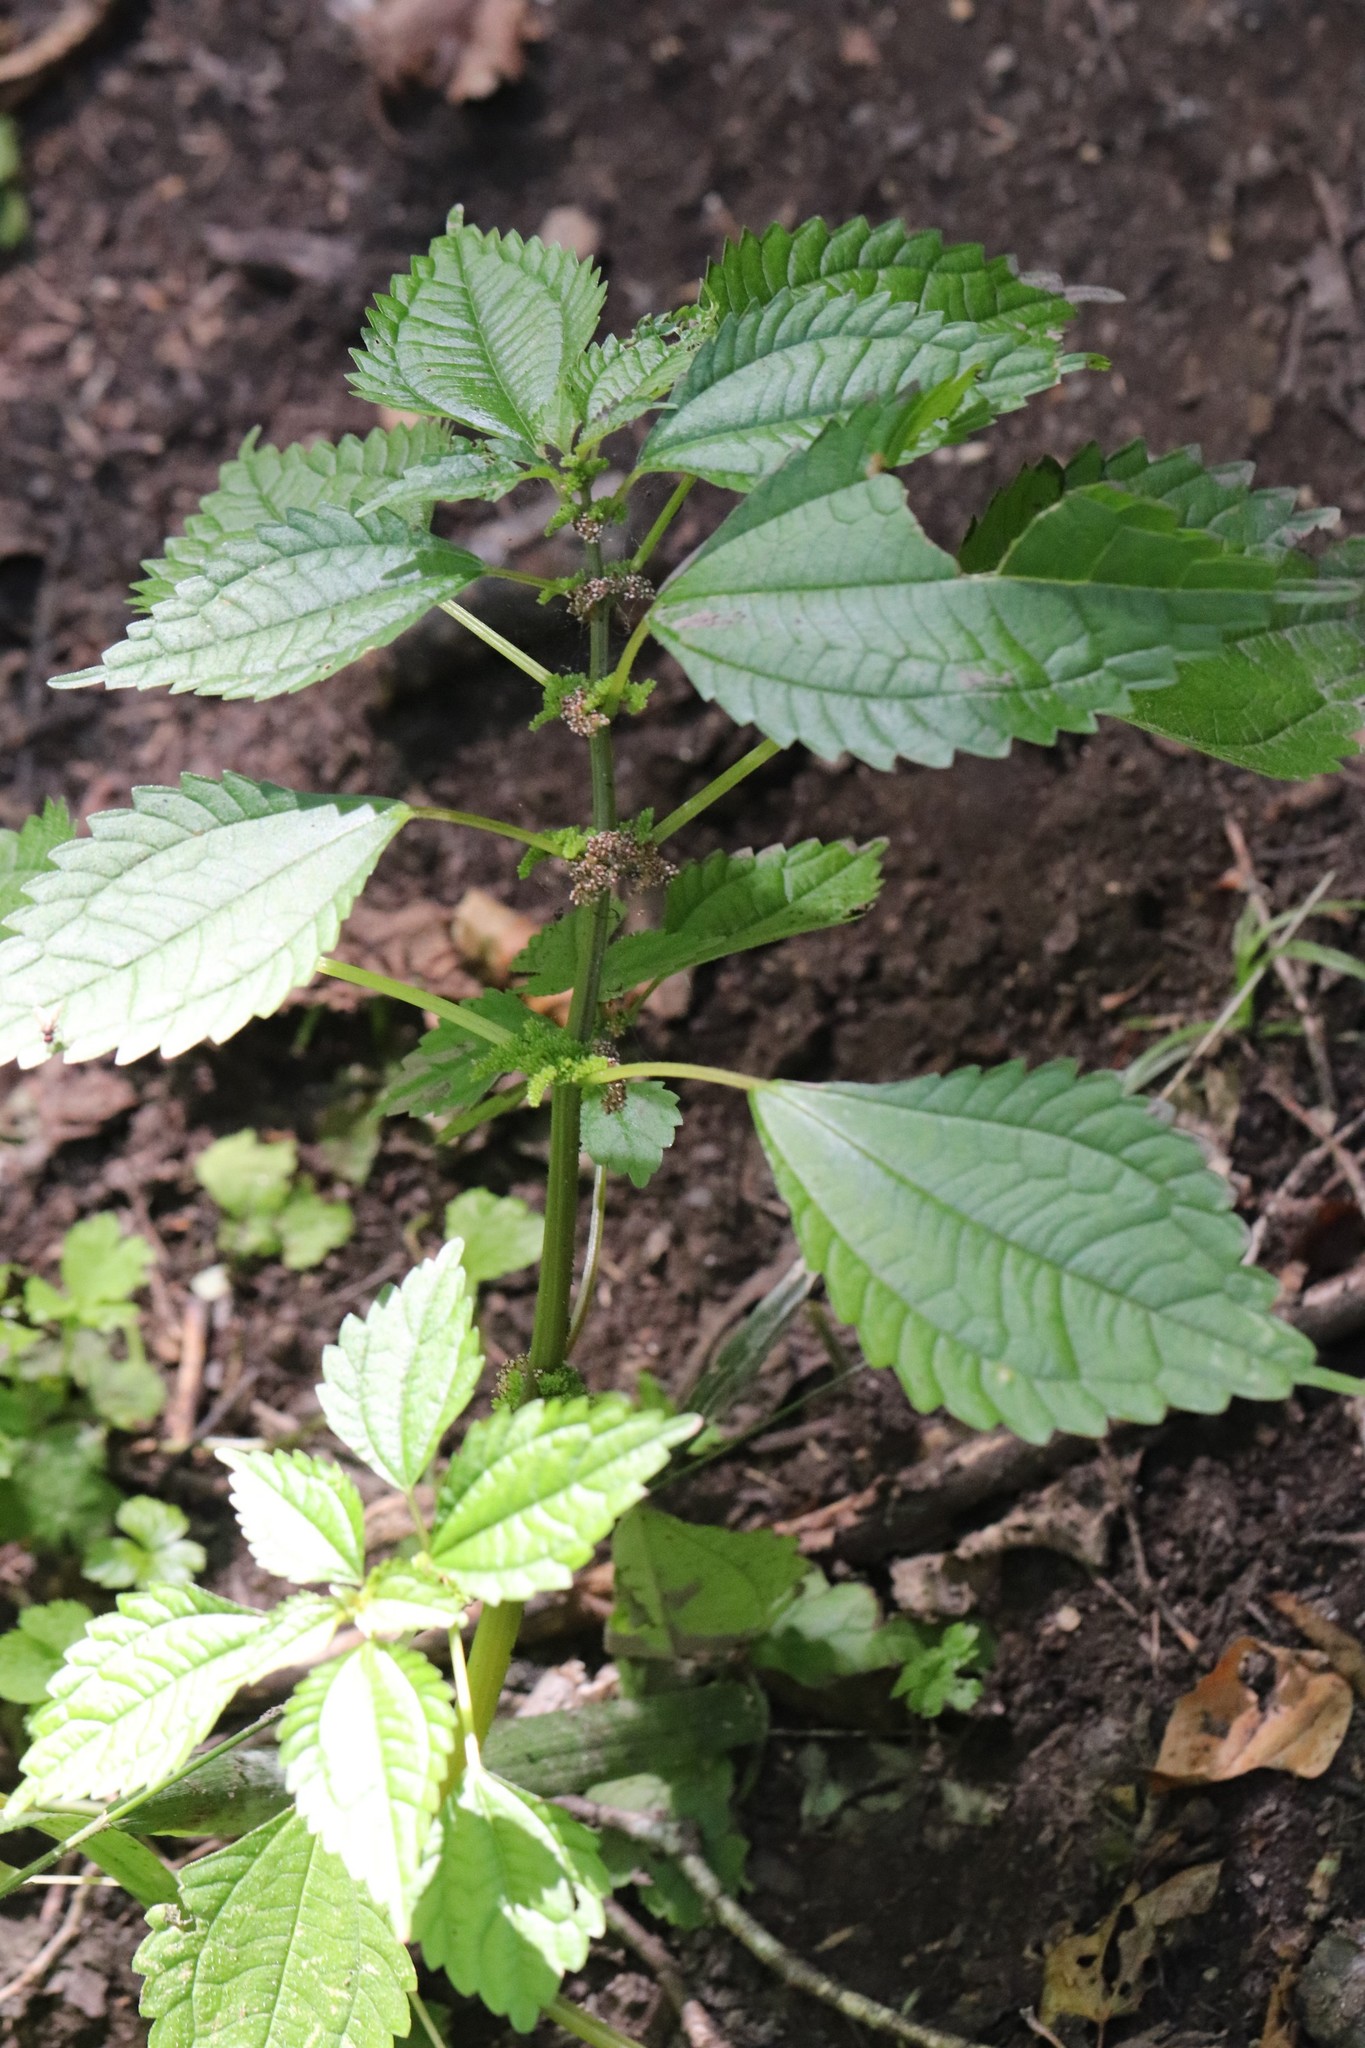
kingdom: Plantae
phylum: Tracheophyta
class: Magnoliopsida
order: Rosales
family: Urticaceae
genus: Pilea
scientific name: Pilea pumila
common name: Clearweed
